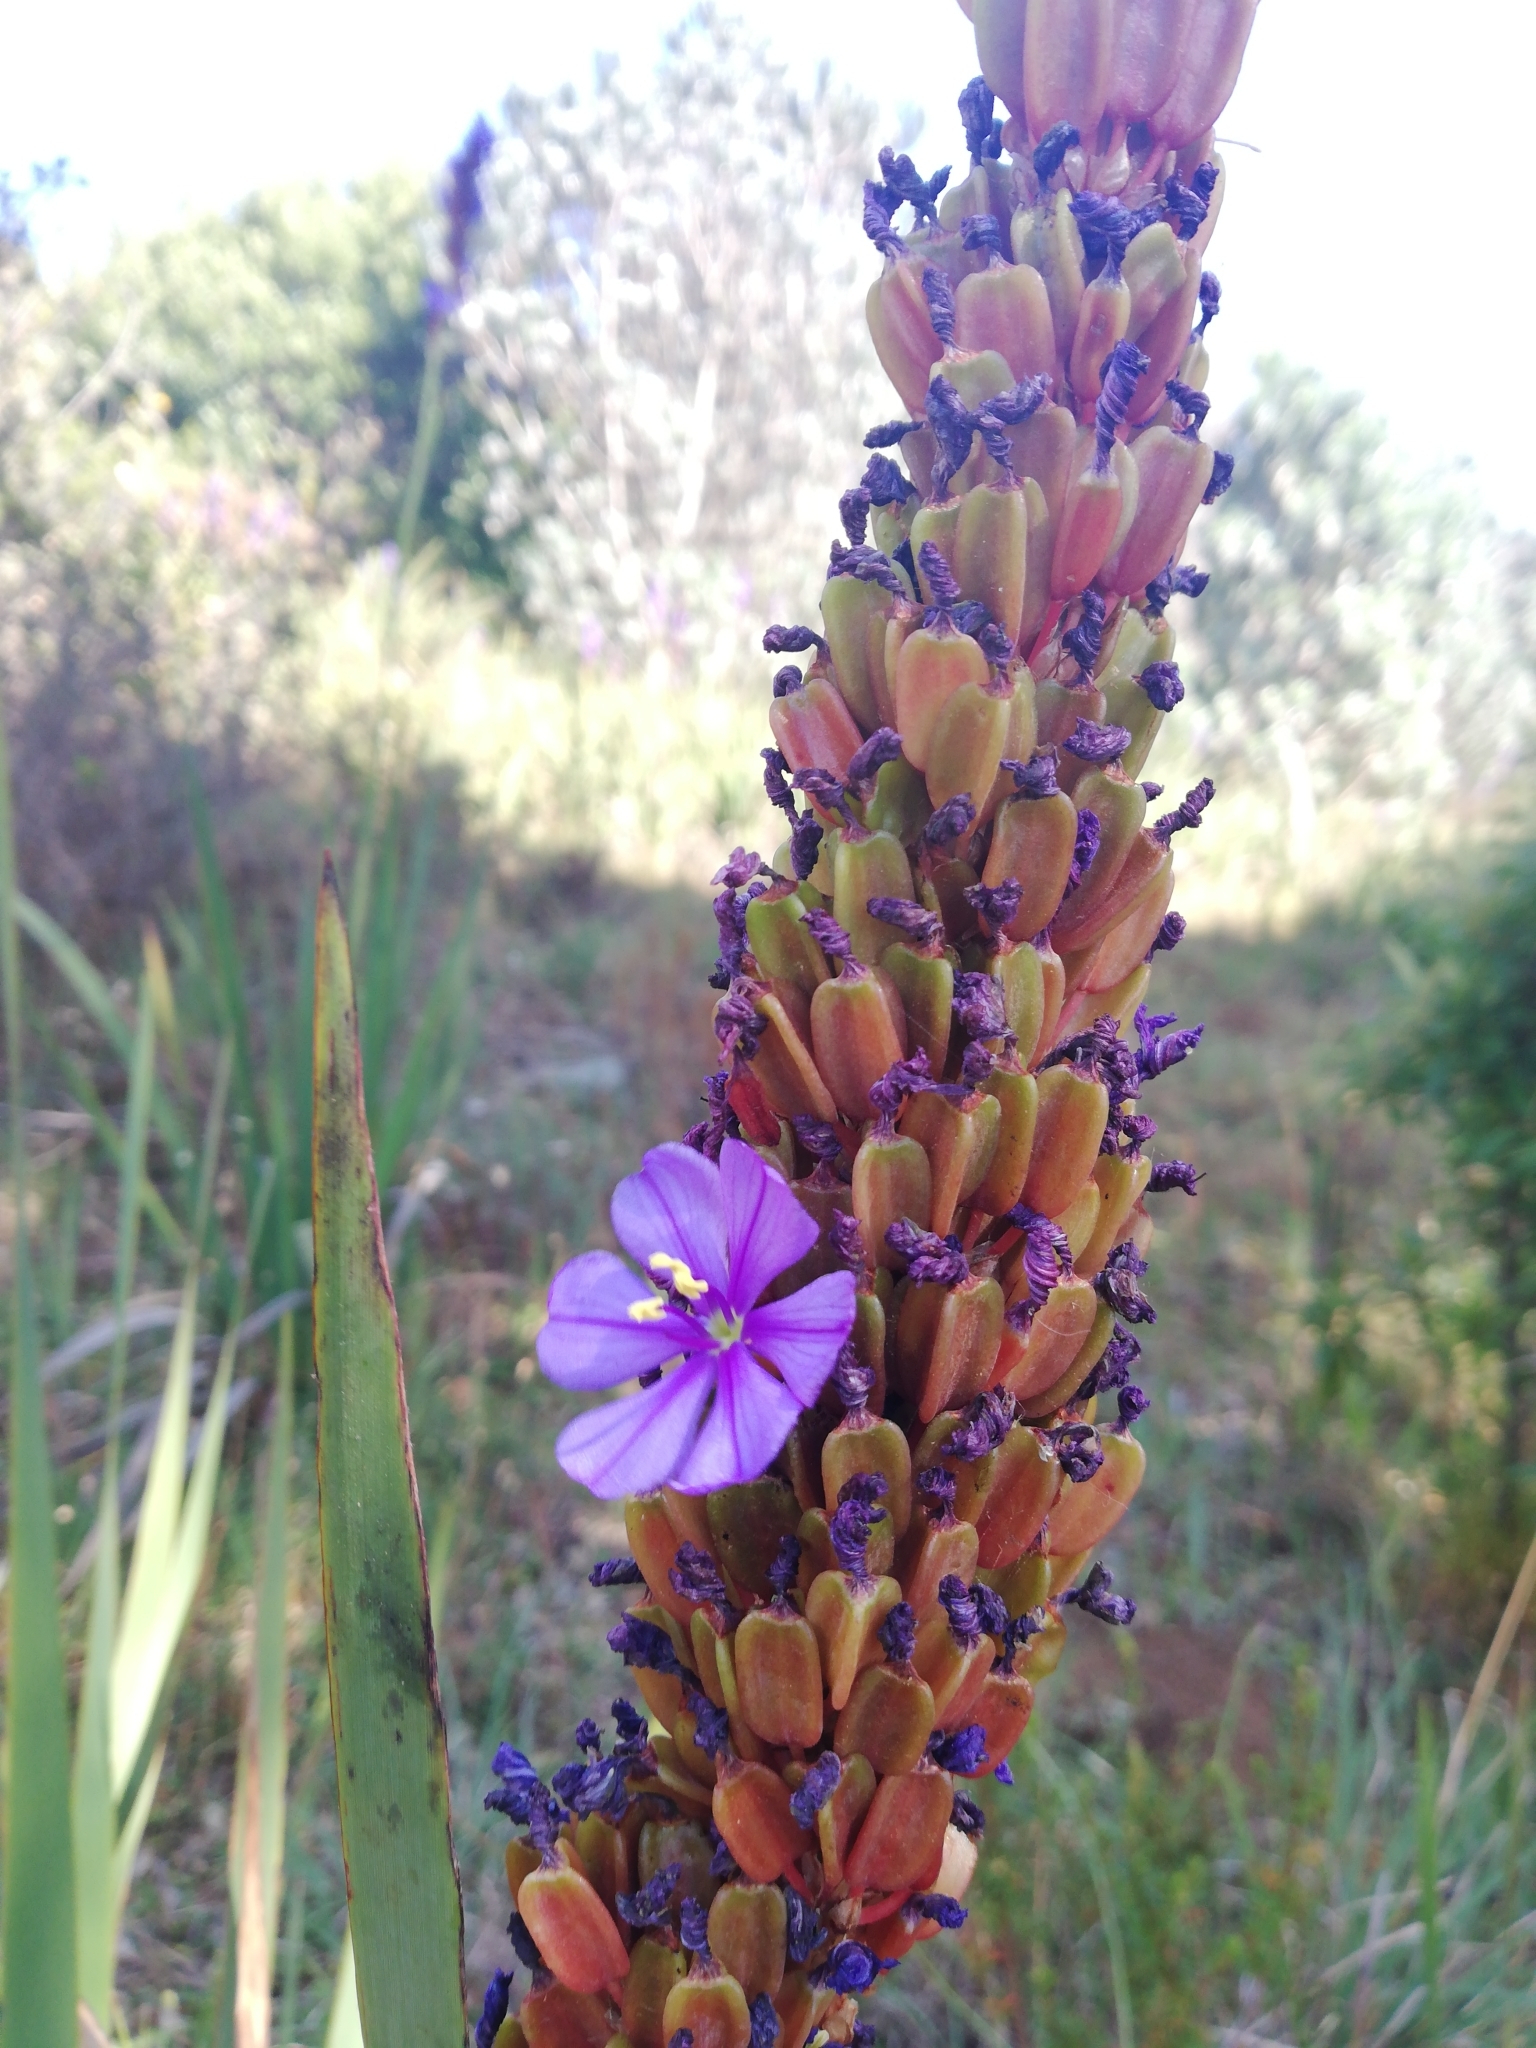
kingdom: Plantae
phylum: Tracheophyta
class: Liliopsida
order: Asparagales
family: Iridaceae
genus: Aristea
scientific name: Aristea capitata
